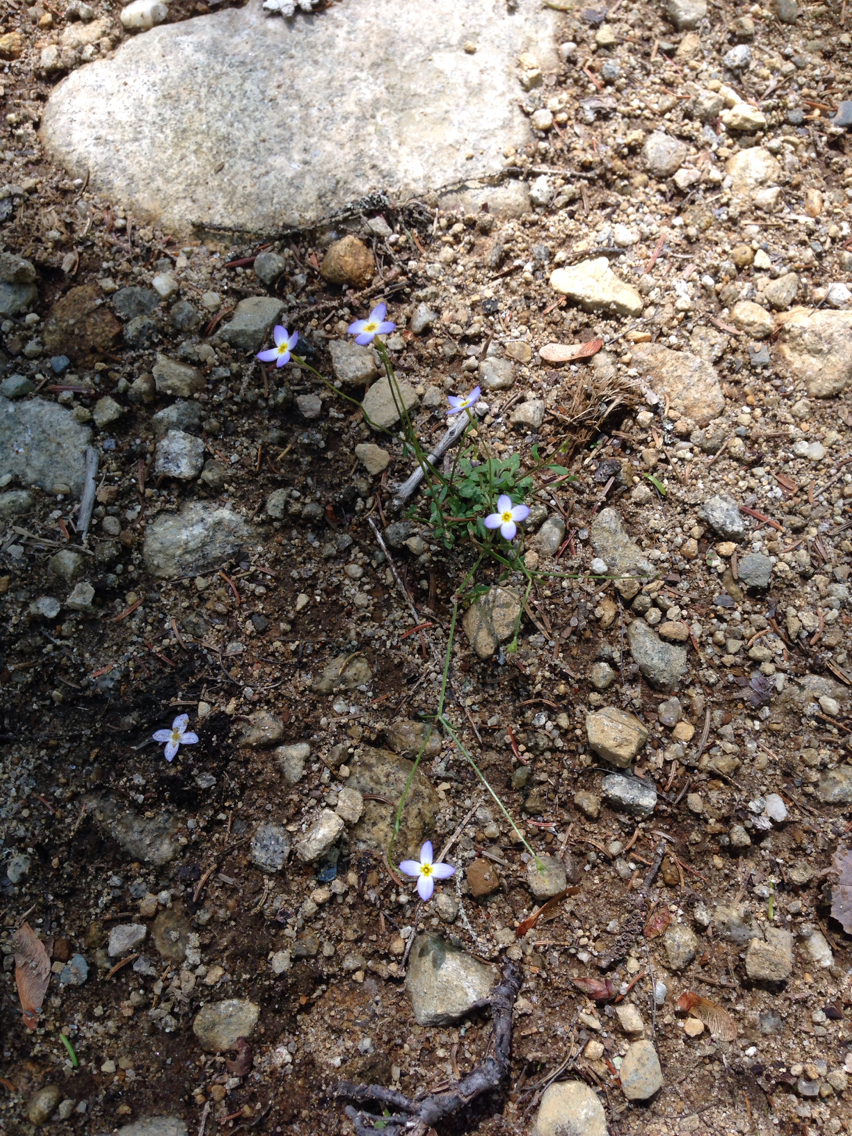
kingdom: Plantae
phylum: Tracheophyta
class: Magnoliopsida
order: Gentianales
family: Rubiaceae
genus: Houstonia
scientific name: Houstonia caerulea
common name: Bluets
